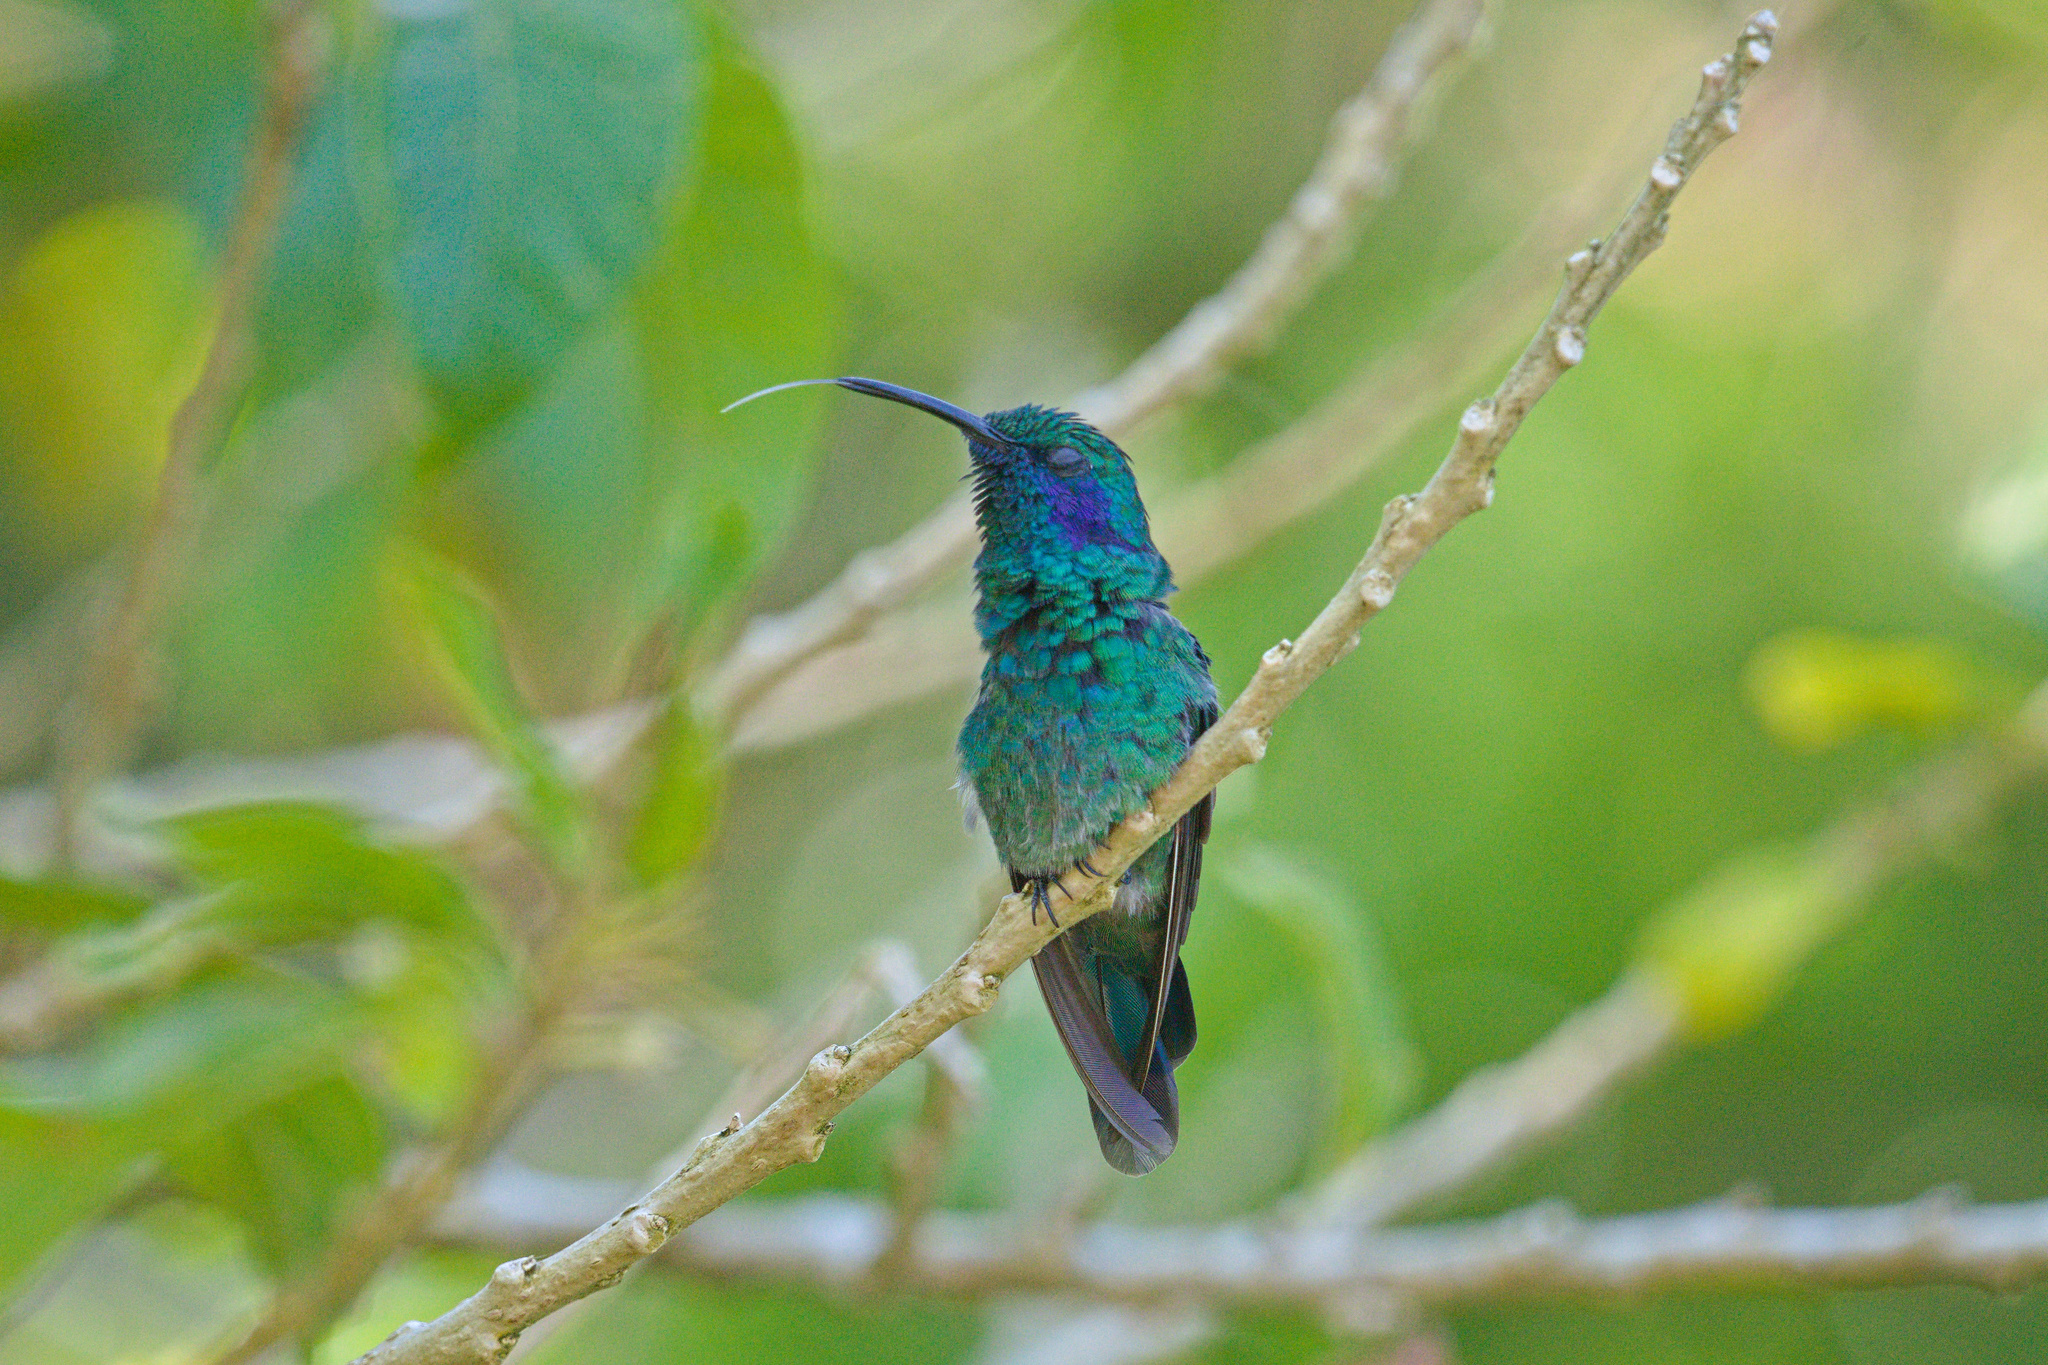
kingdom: Animalia
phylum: Chordata
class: Aves
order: Apodiformes
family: Trochilidae
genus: Colibri
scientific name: Colibri cyanotus
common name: Lesser violetear
